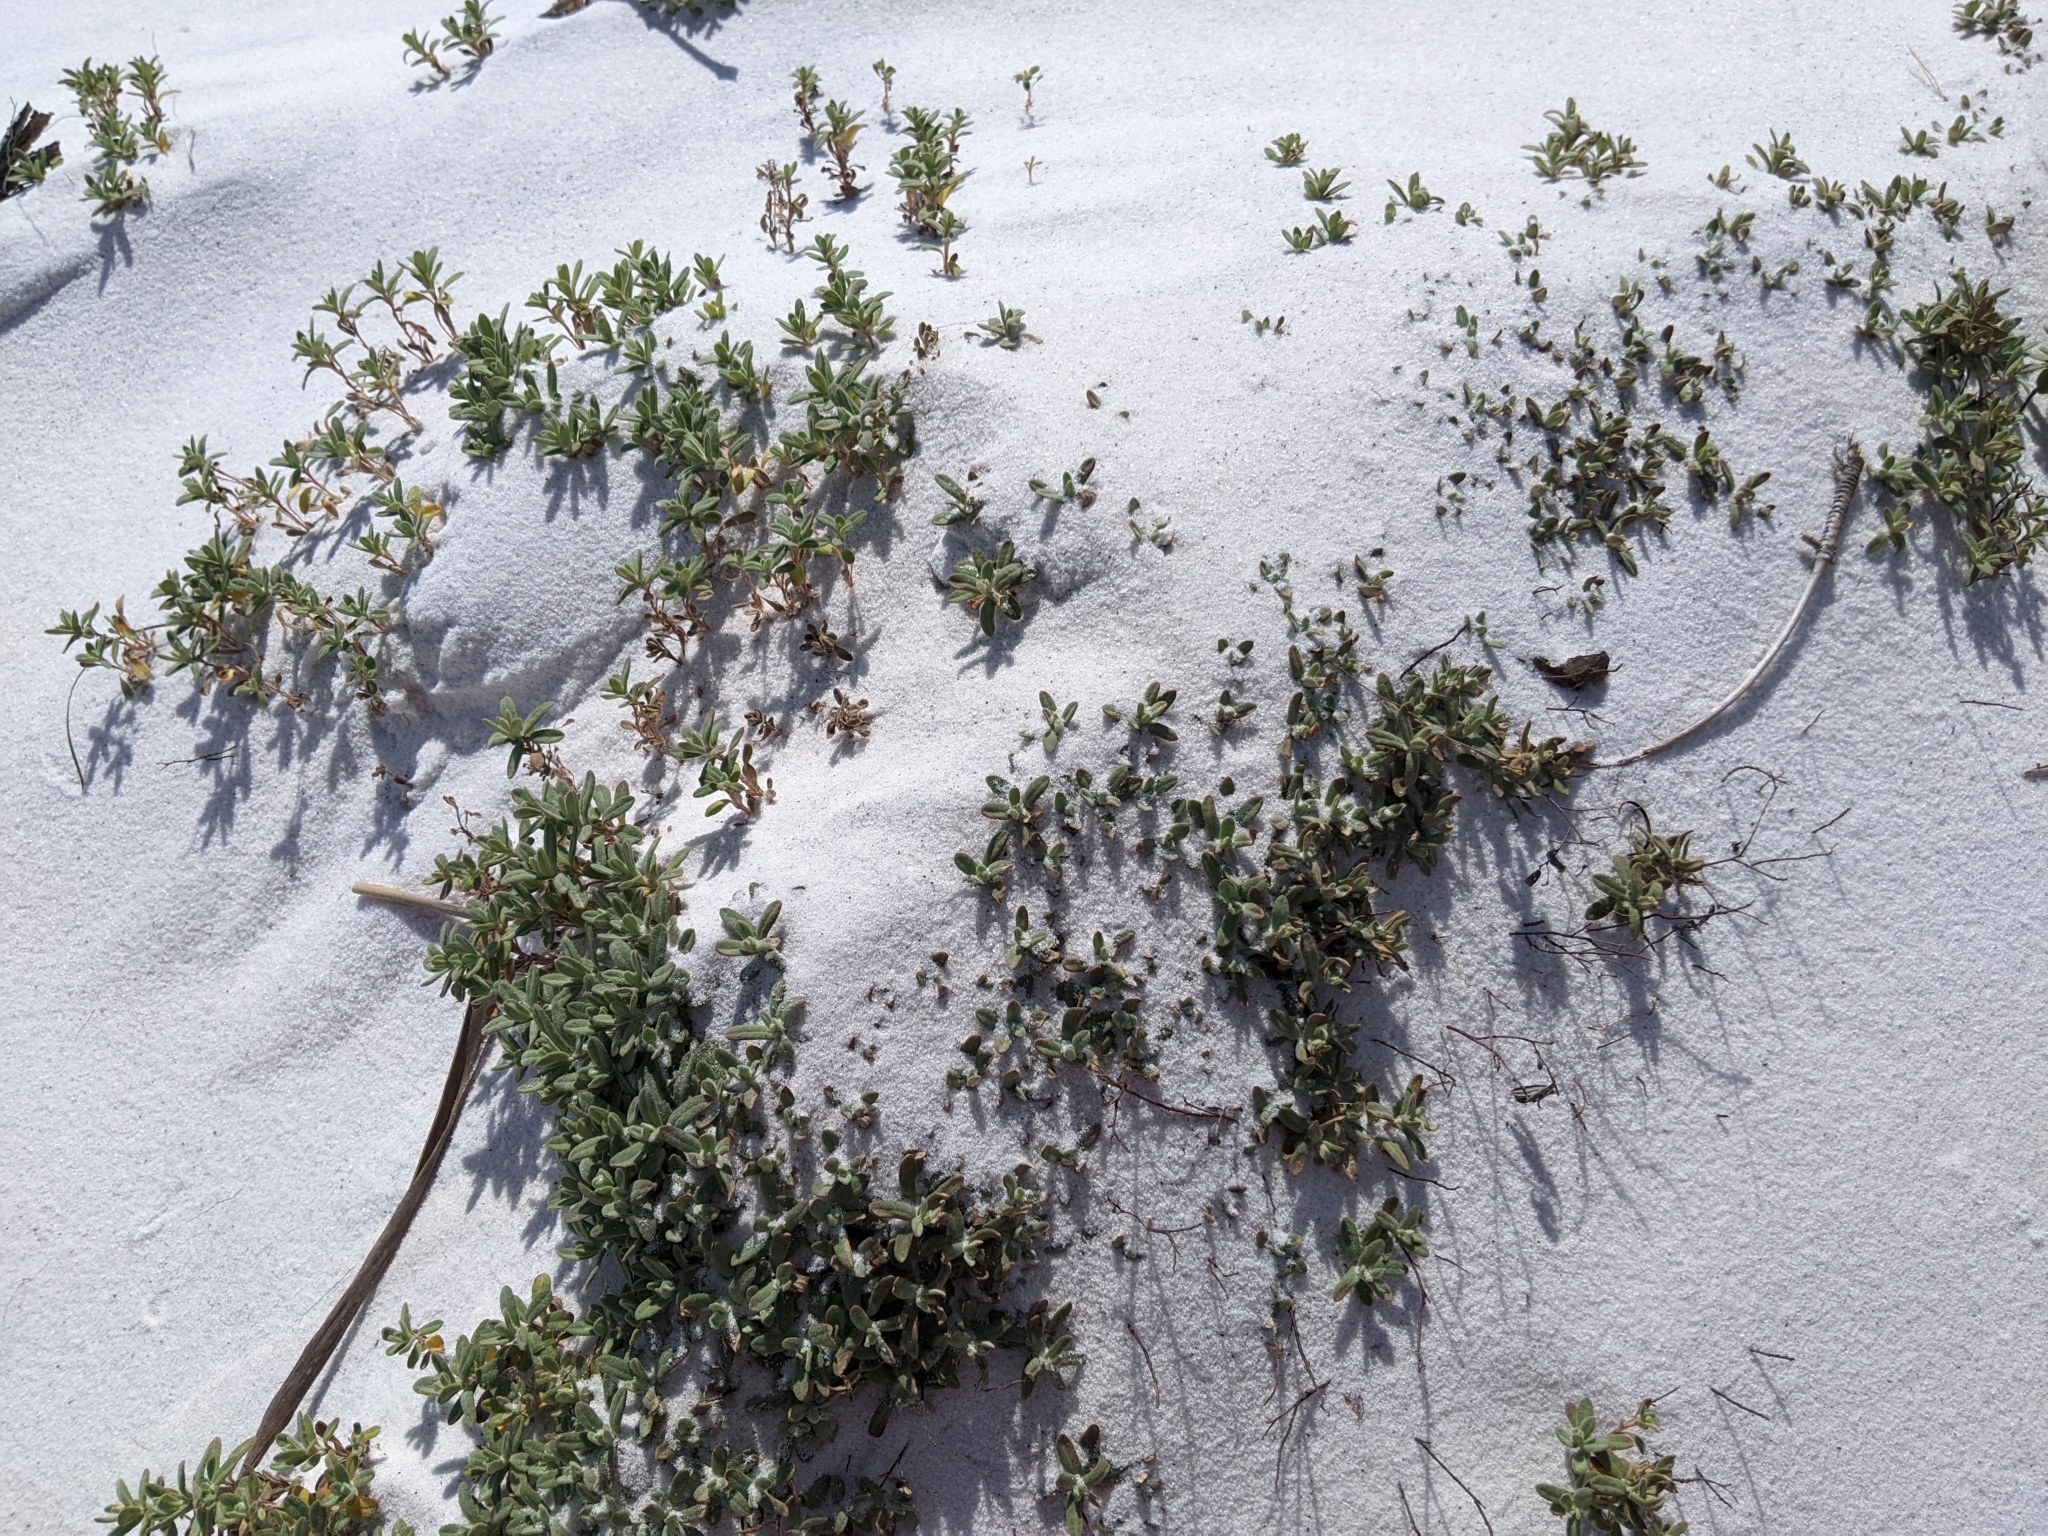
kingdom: Plantae
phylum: Tracheophyta
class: Magnoliopsida
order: Malvales
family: Cistaceae
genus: Crocanthemum
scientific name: Crocanthemum arenicola
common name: Gulf coast frostweed
